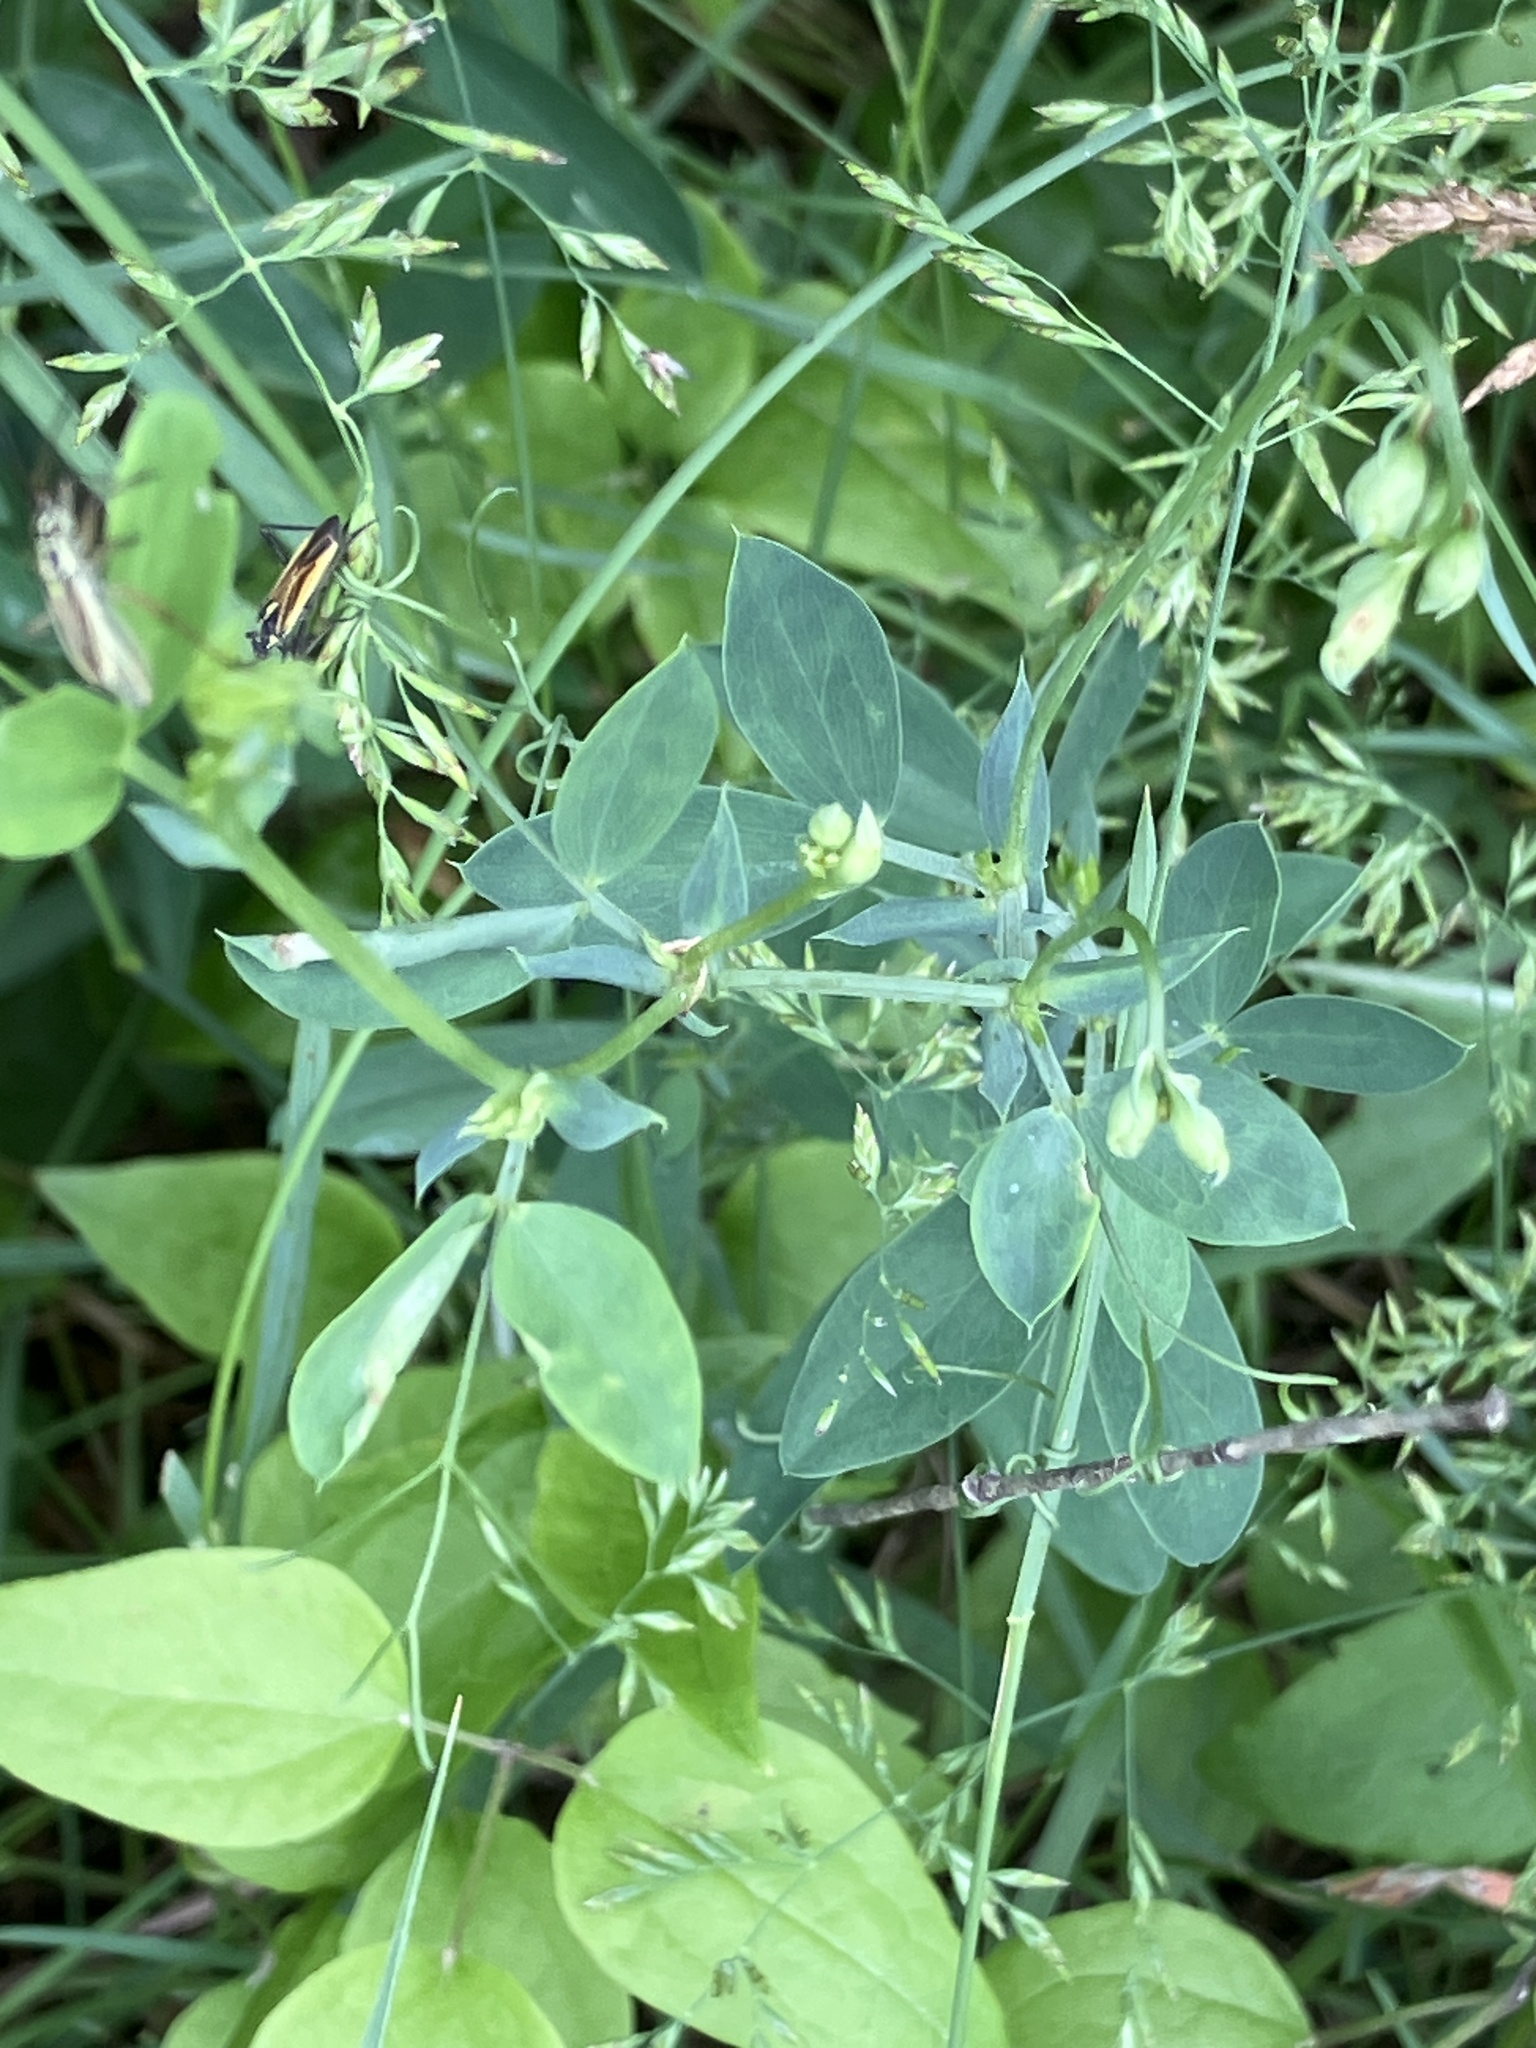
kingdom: Plantae
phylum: Tracheophyta
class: Magnoliopsida
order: Fabales
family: Fabaceae
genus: Lathyrus
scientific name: Lathyrus tuberosus
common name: Tuberous pea
